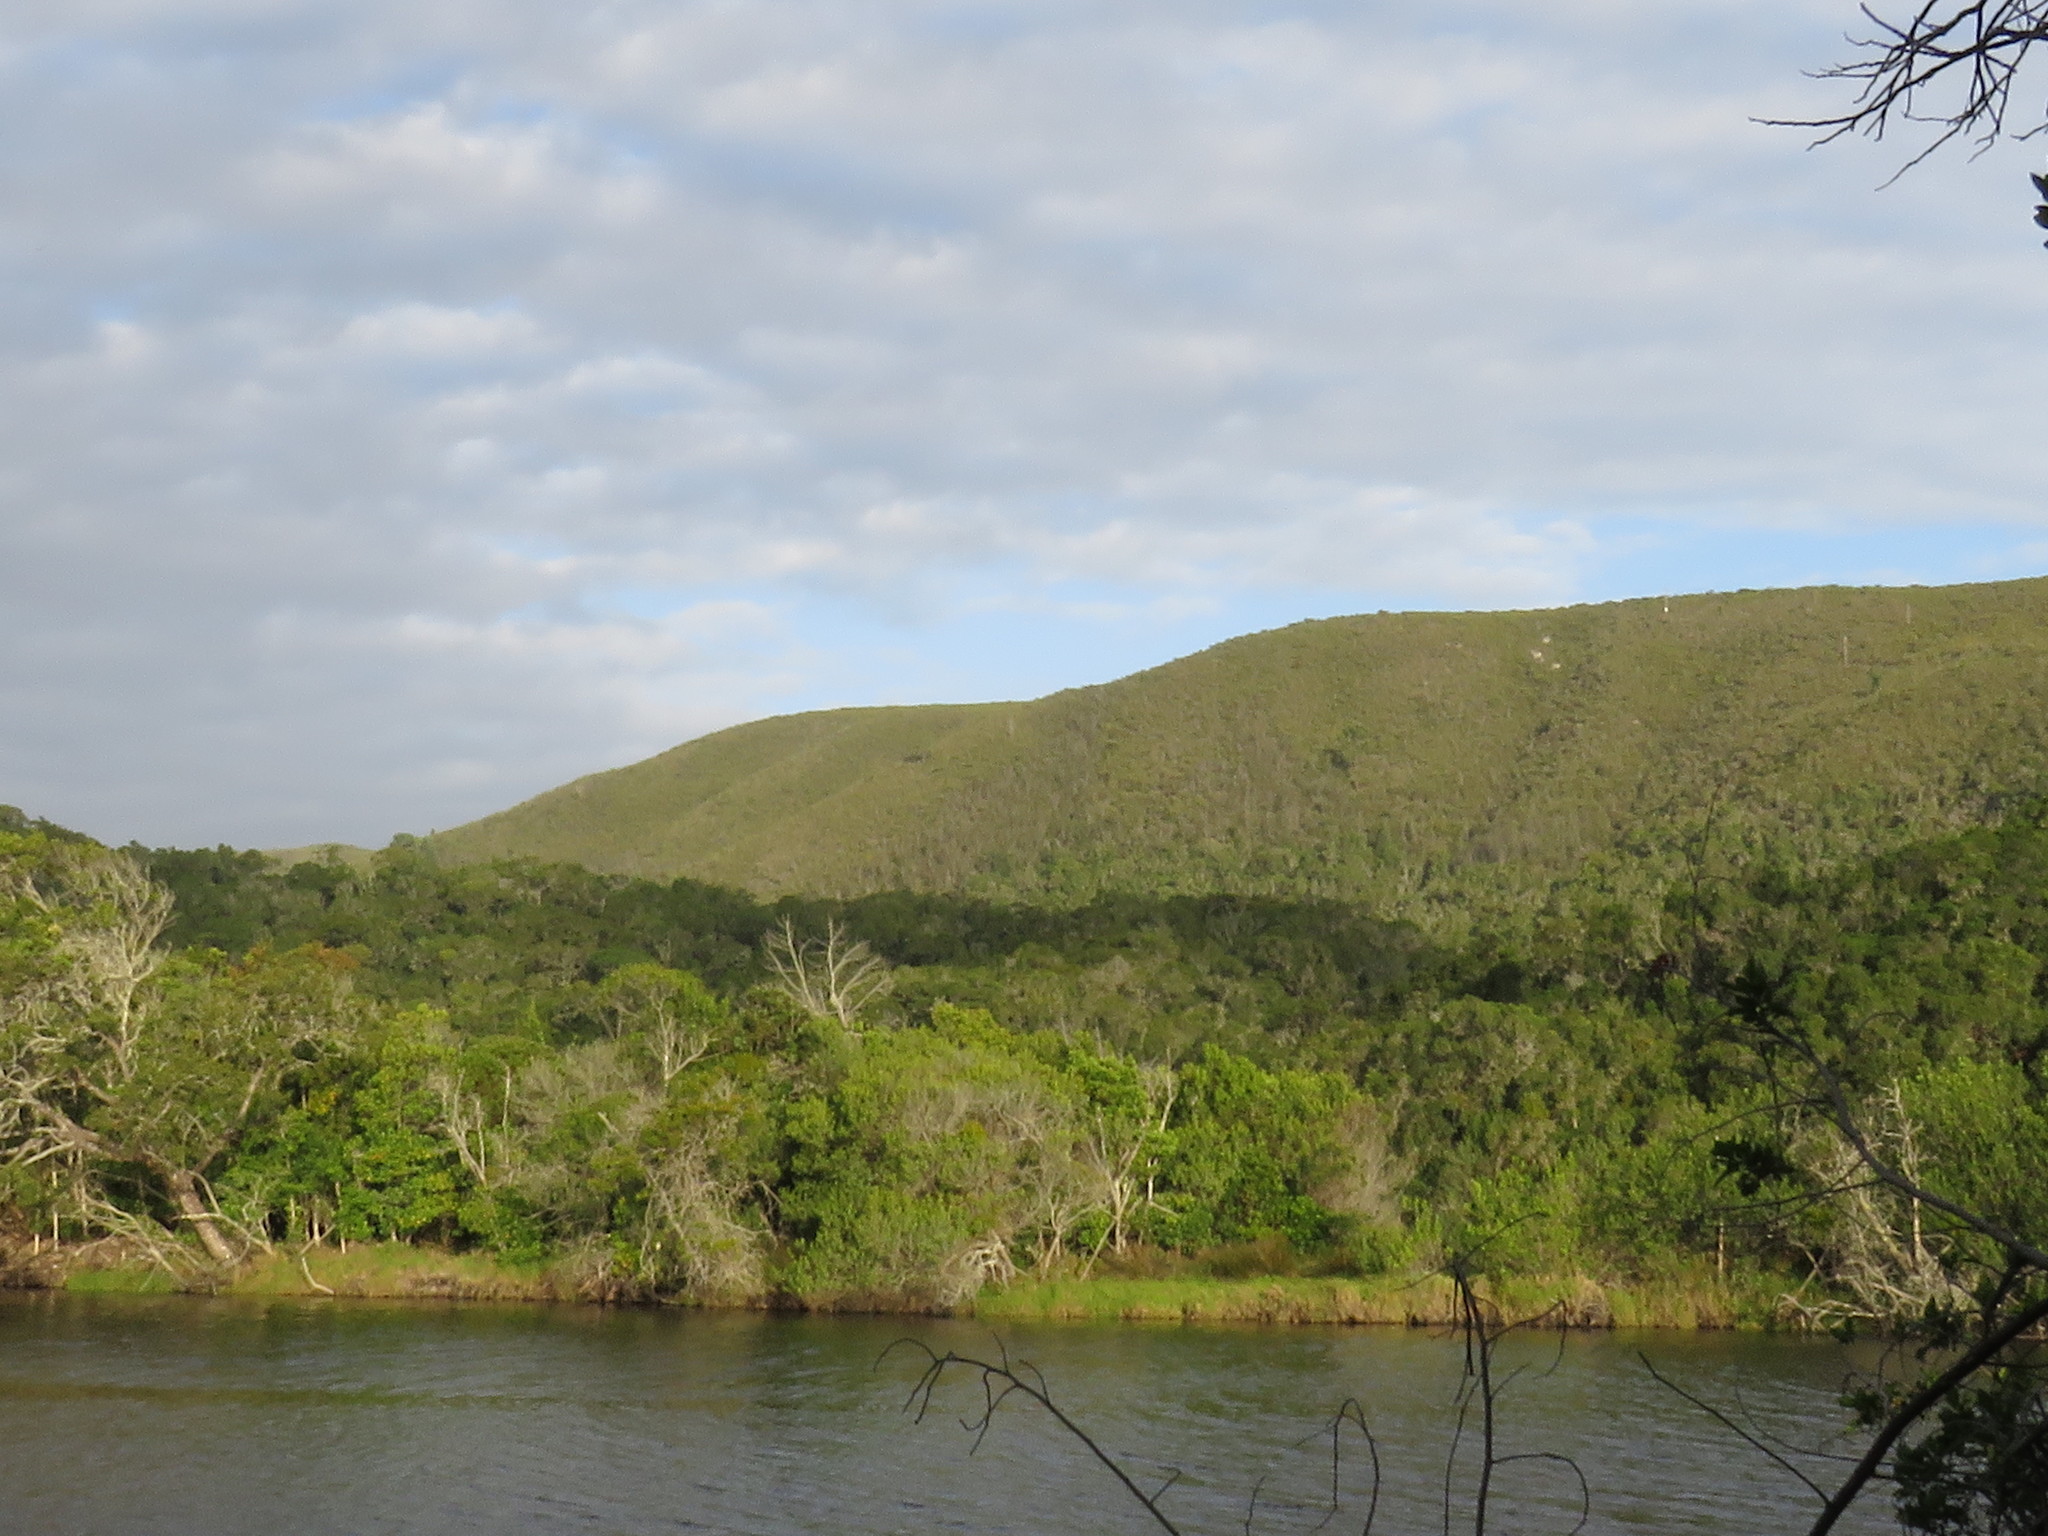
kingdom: Plantae
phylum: Tracheophyta
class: Pinopsida
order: Pinales
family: Pinaceae
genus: Pinus
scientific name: Pinus pinaster
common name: Maritime pine
